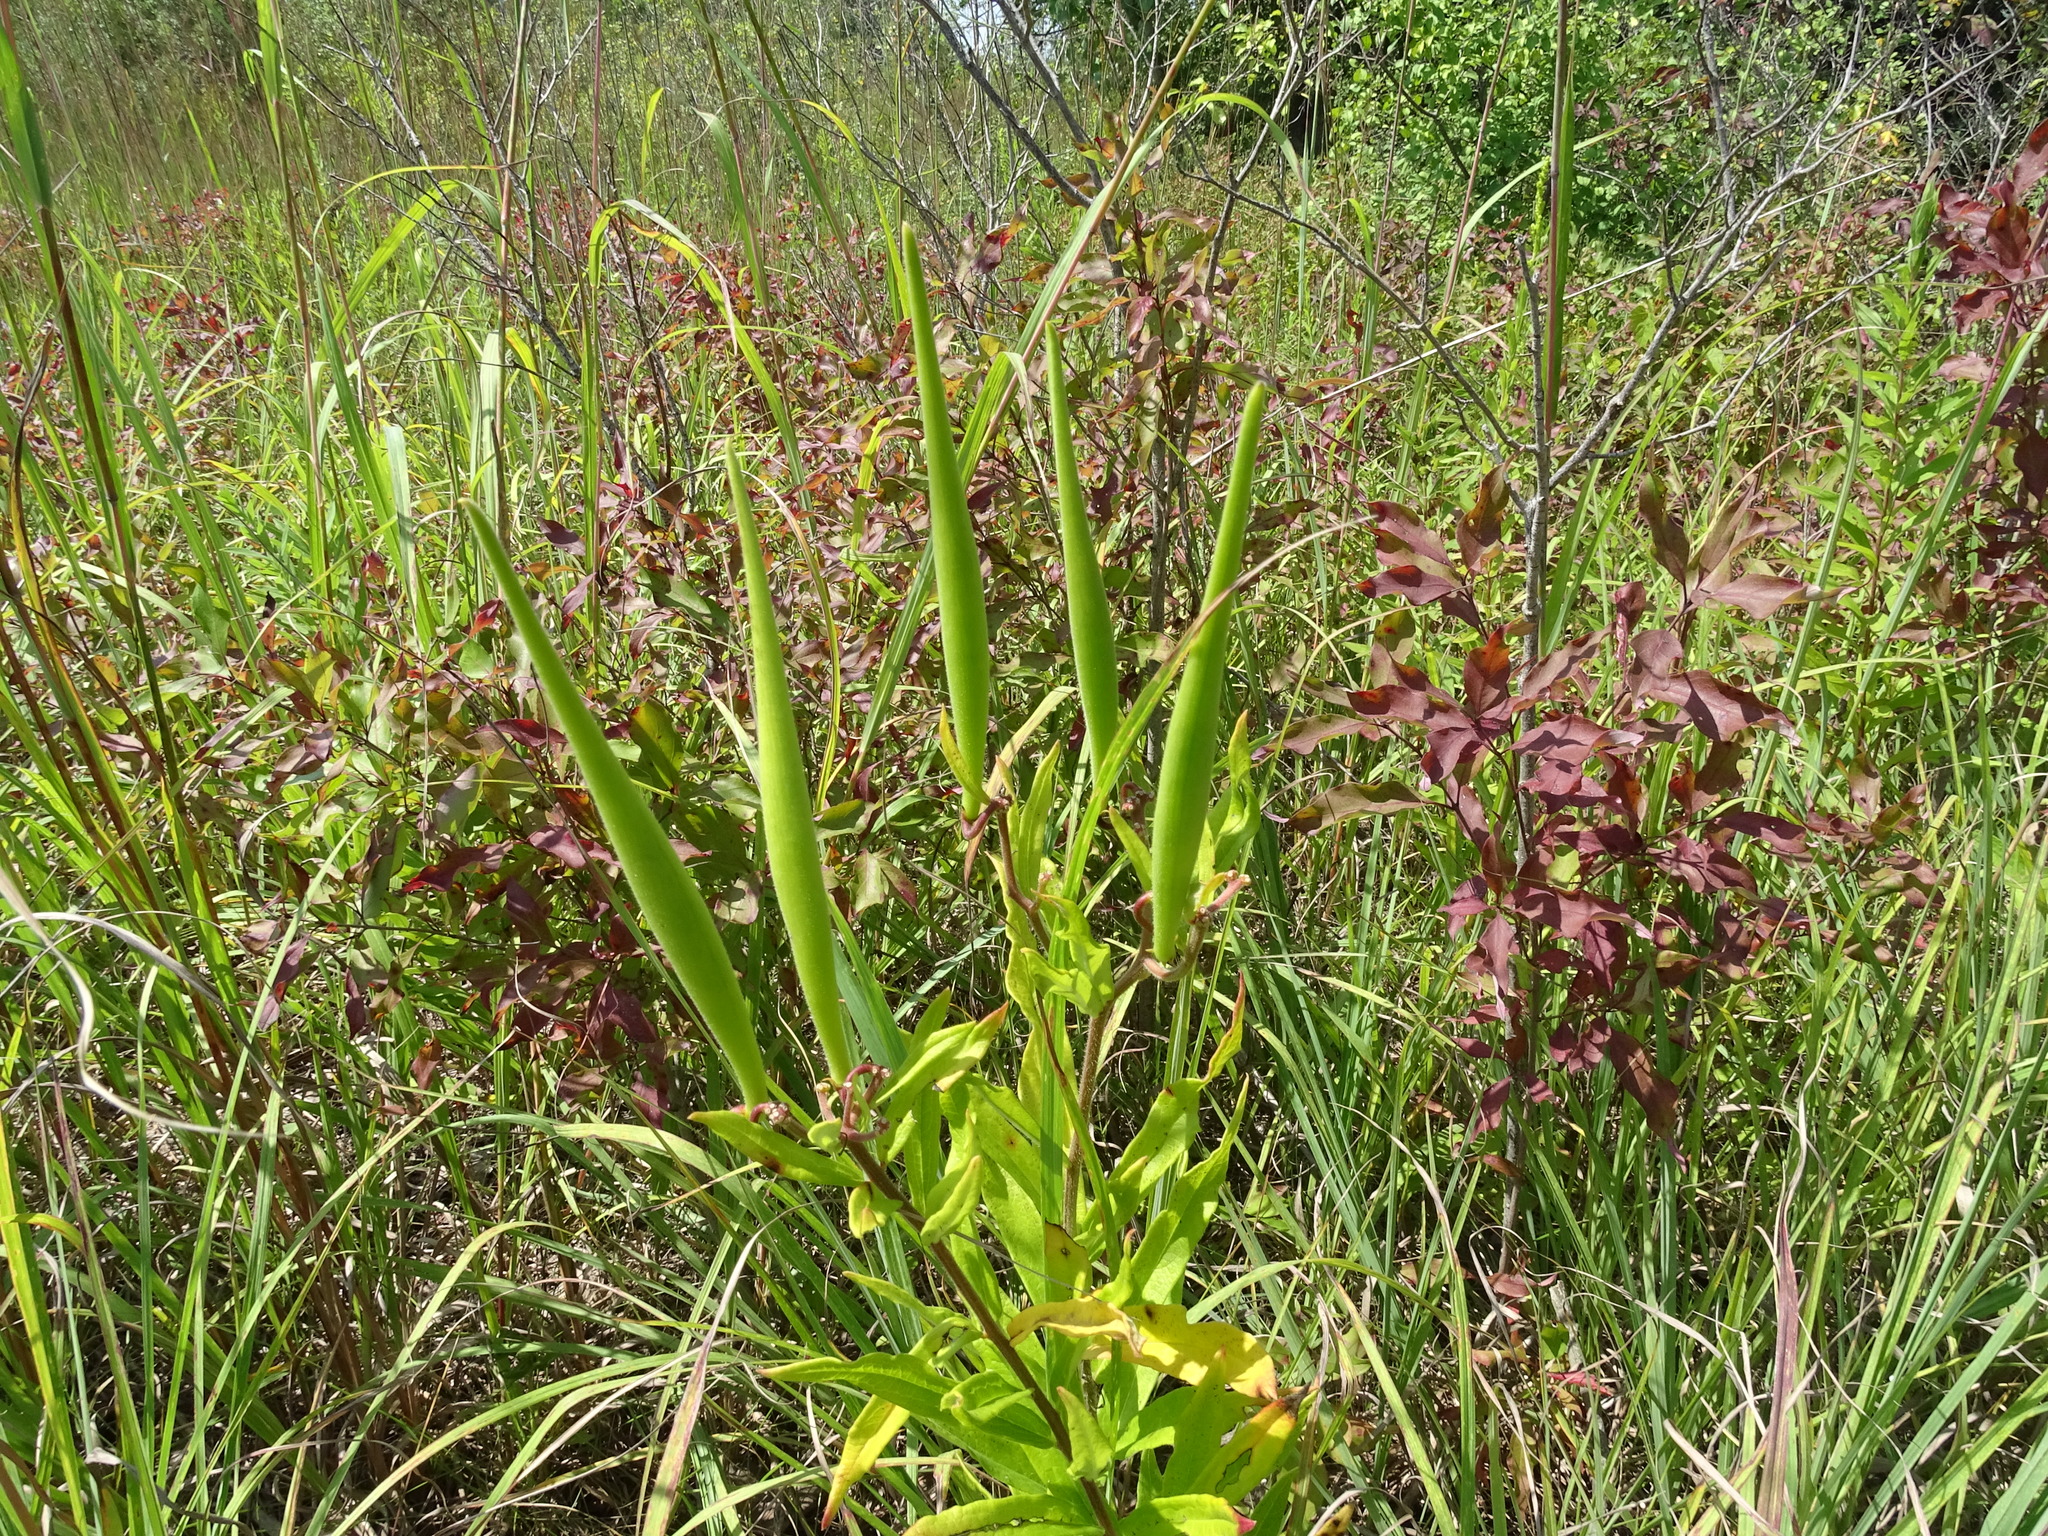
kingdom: Plantae
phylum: Tracheophyta
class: Magnoliopsida
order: Gentianales
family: Apocynaceae
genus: Asclepias
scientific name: Asclepias tuberosa
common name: Butterfly milkweed
